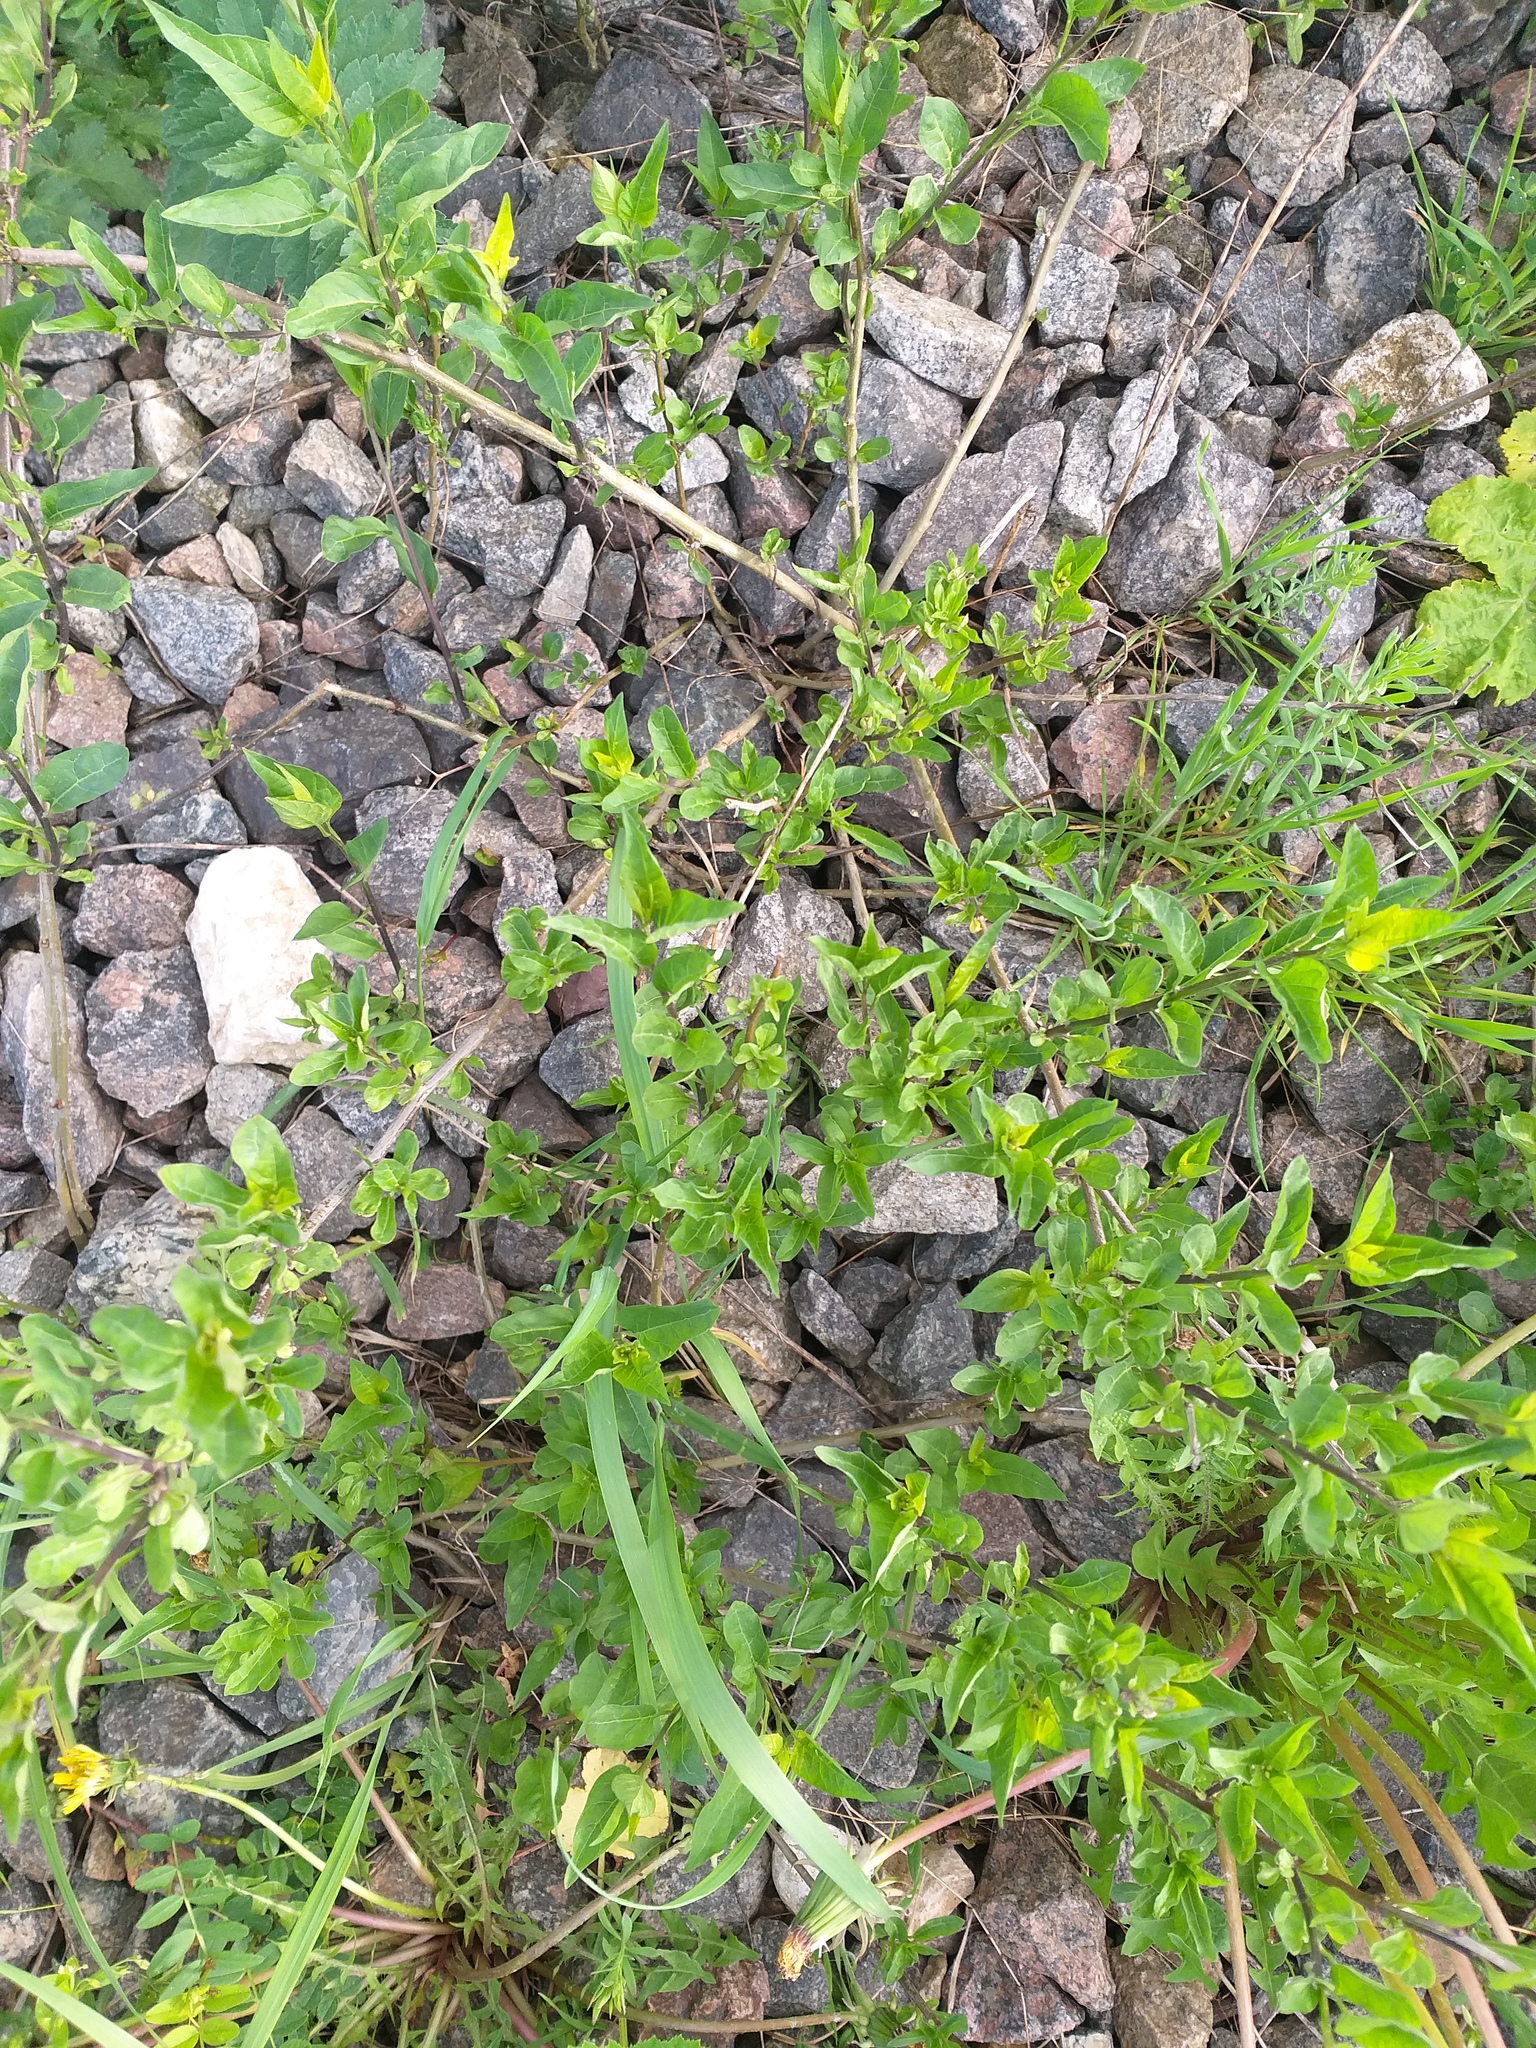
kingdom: Plantae
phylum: Tracheophyta
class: Magnoliopsida
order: Solanales
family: Solanaceae
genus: Solanum
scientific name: Solanum dulcamara
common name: Climbing nightshade
